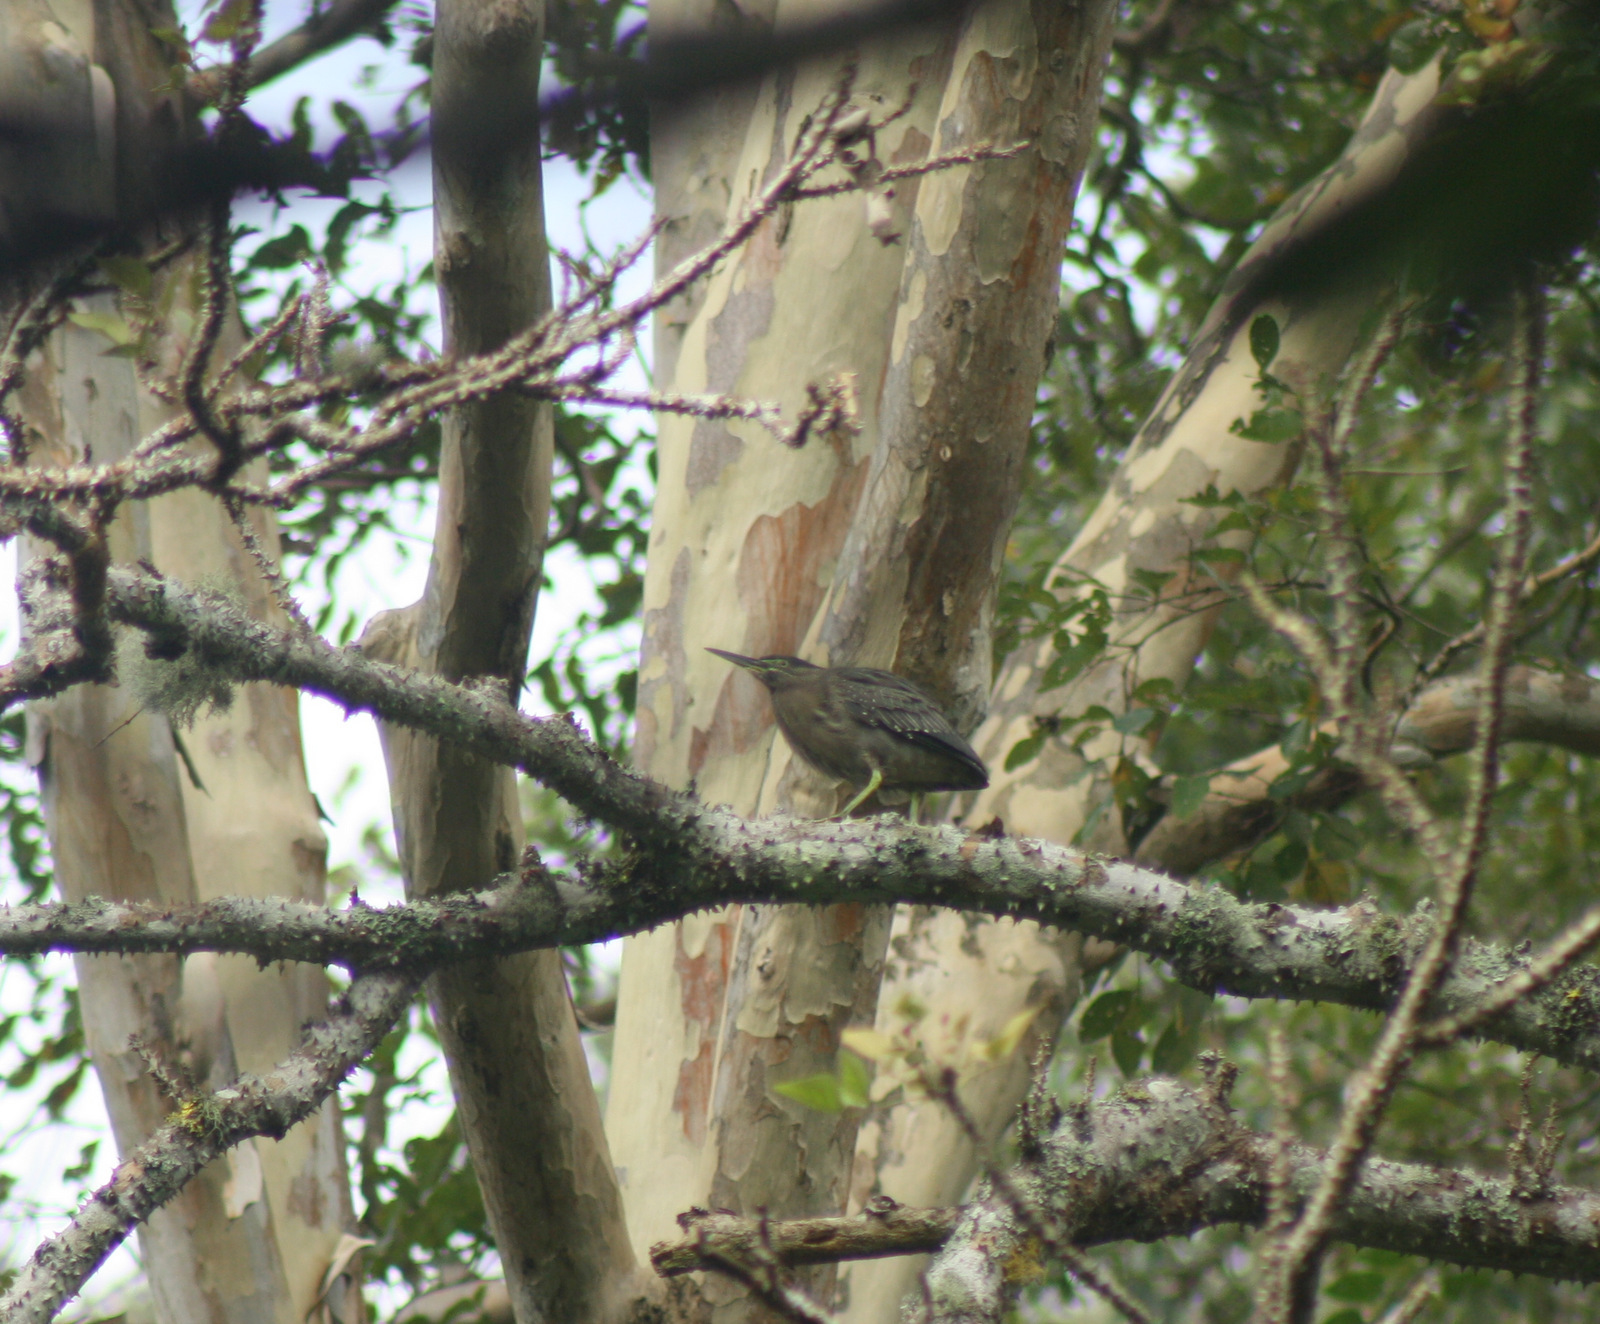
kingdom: Animalia
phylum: Chordata
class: Aves
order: Pelecaniformes
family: Ardeidae
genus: Butorides
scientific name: Butorides striata
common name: Striated heron
